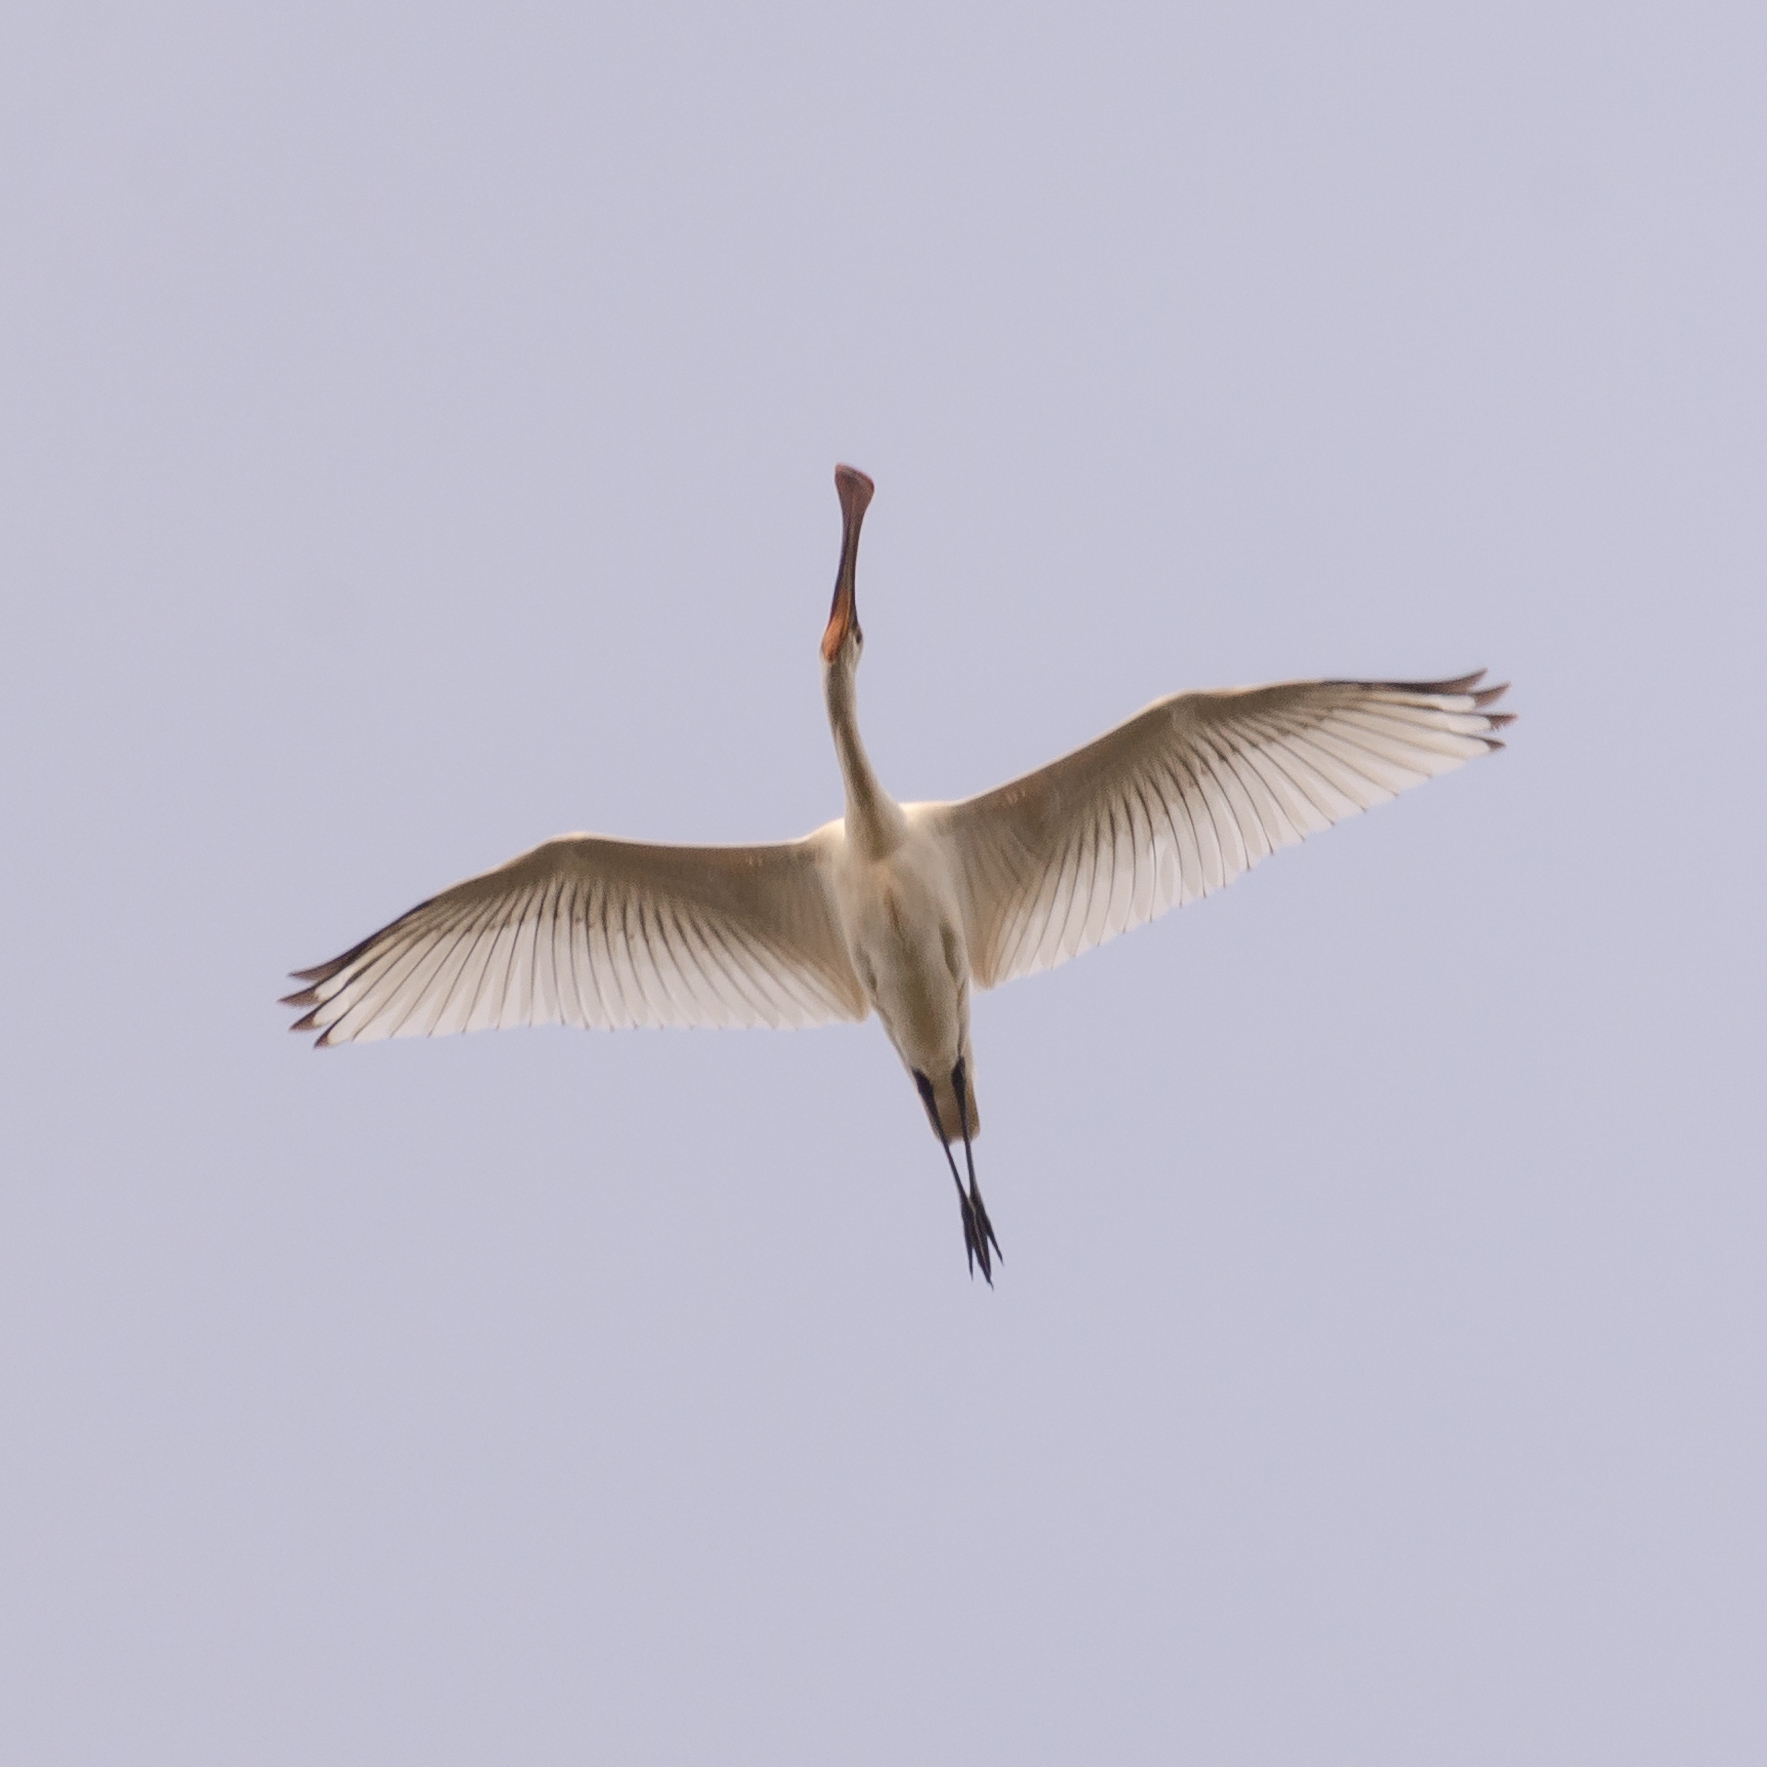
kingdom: Animalia
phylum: Chordata
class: Aves
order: Pelecaniformes
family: Threskiornithidae
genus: Platalea
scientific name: Platalea leucorodia
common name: Eurasian spoonbill
